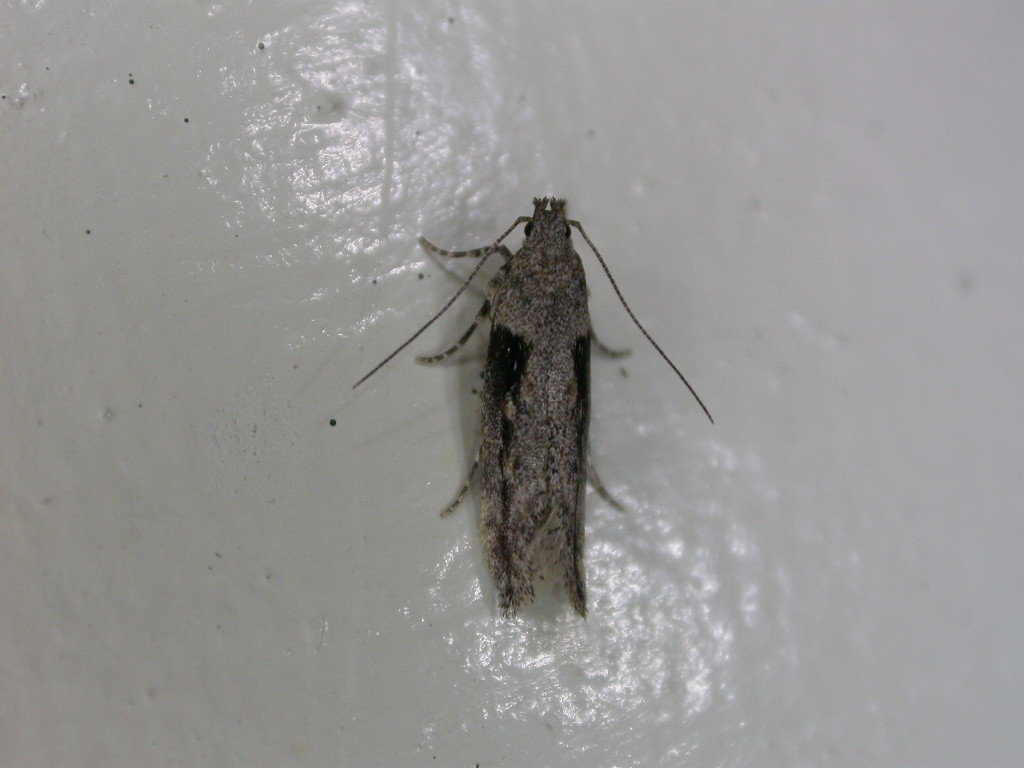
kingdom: Animalia
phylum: Arthropoda
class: Insecta
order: Lepidoptera
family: Gelechiidae
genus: Symmetrischema
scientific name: Symmetrischema tangolias
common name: Moth
